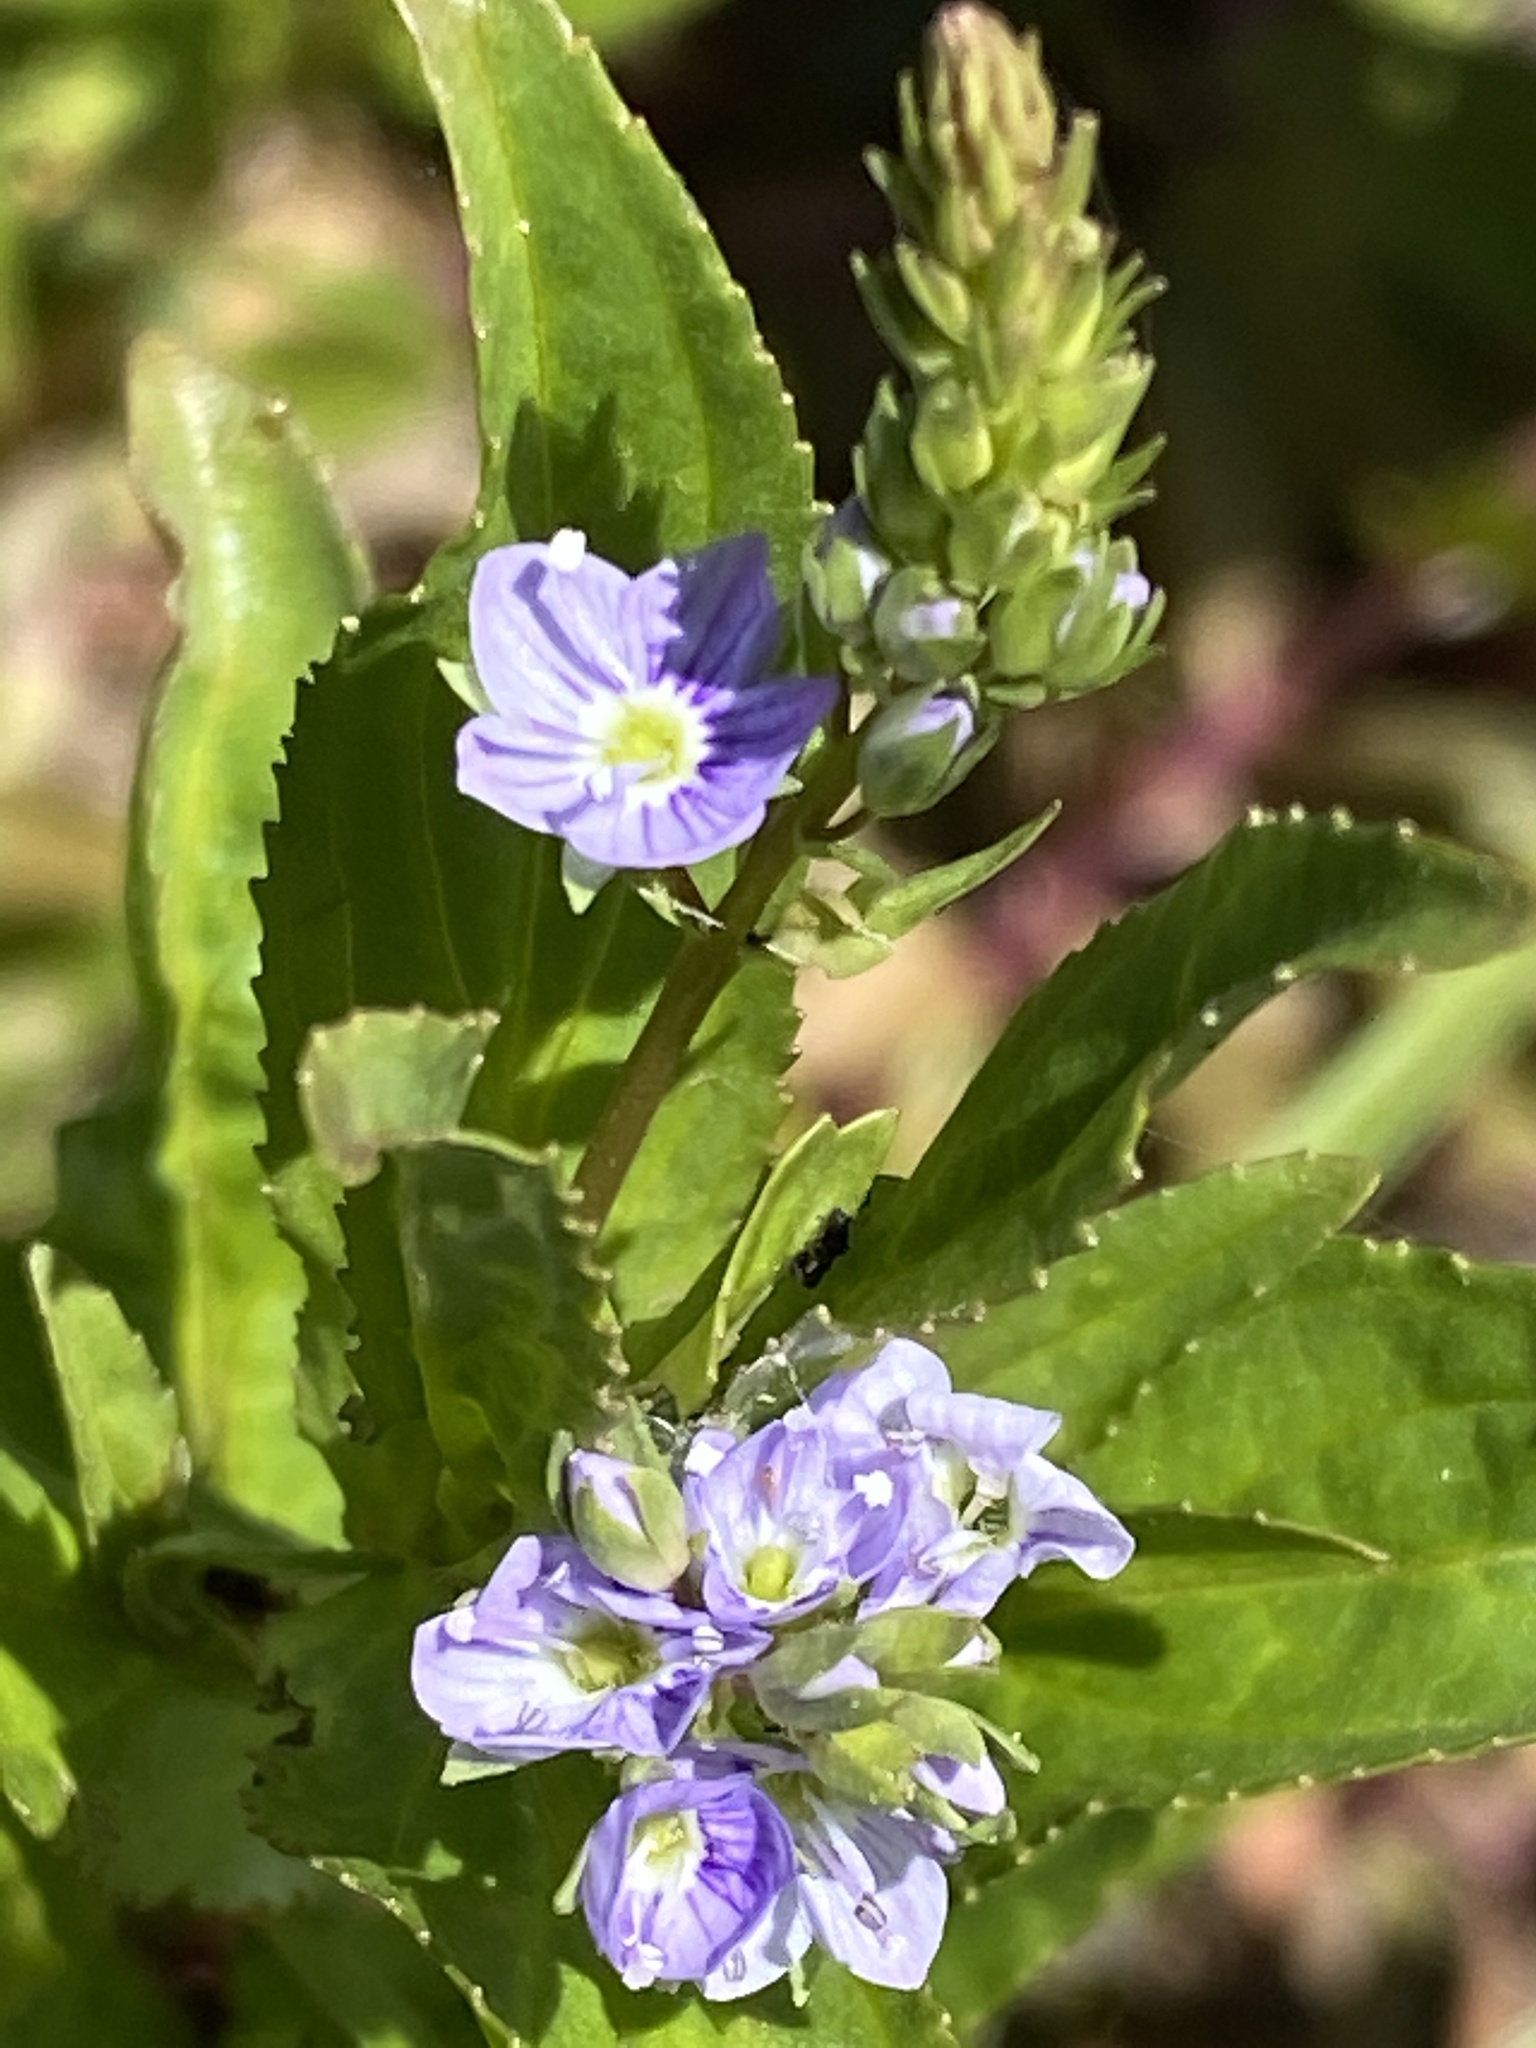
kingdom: Plantae
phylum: Tracheophyta
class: Magnoliopsida
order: Lamiales
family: Plantaginaceae
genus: Veronica
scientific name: Veronica anagallis-aquatica
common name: Water speedwell
